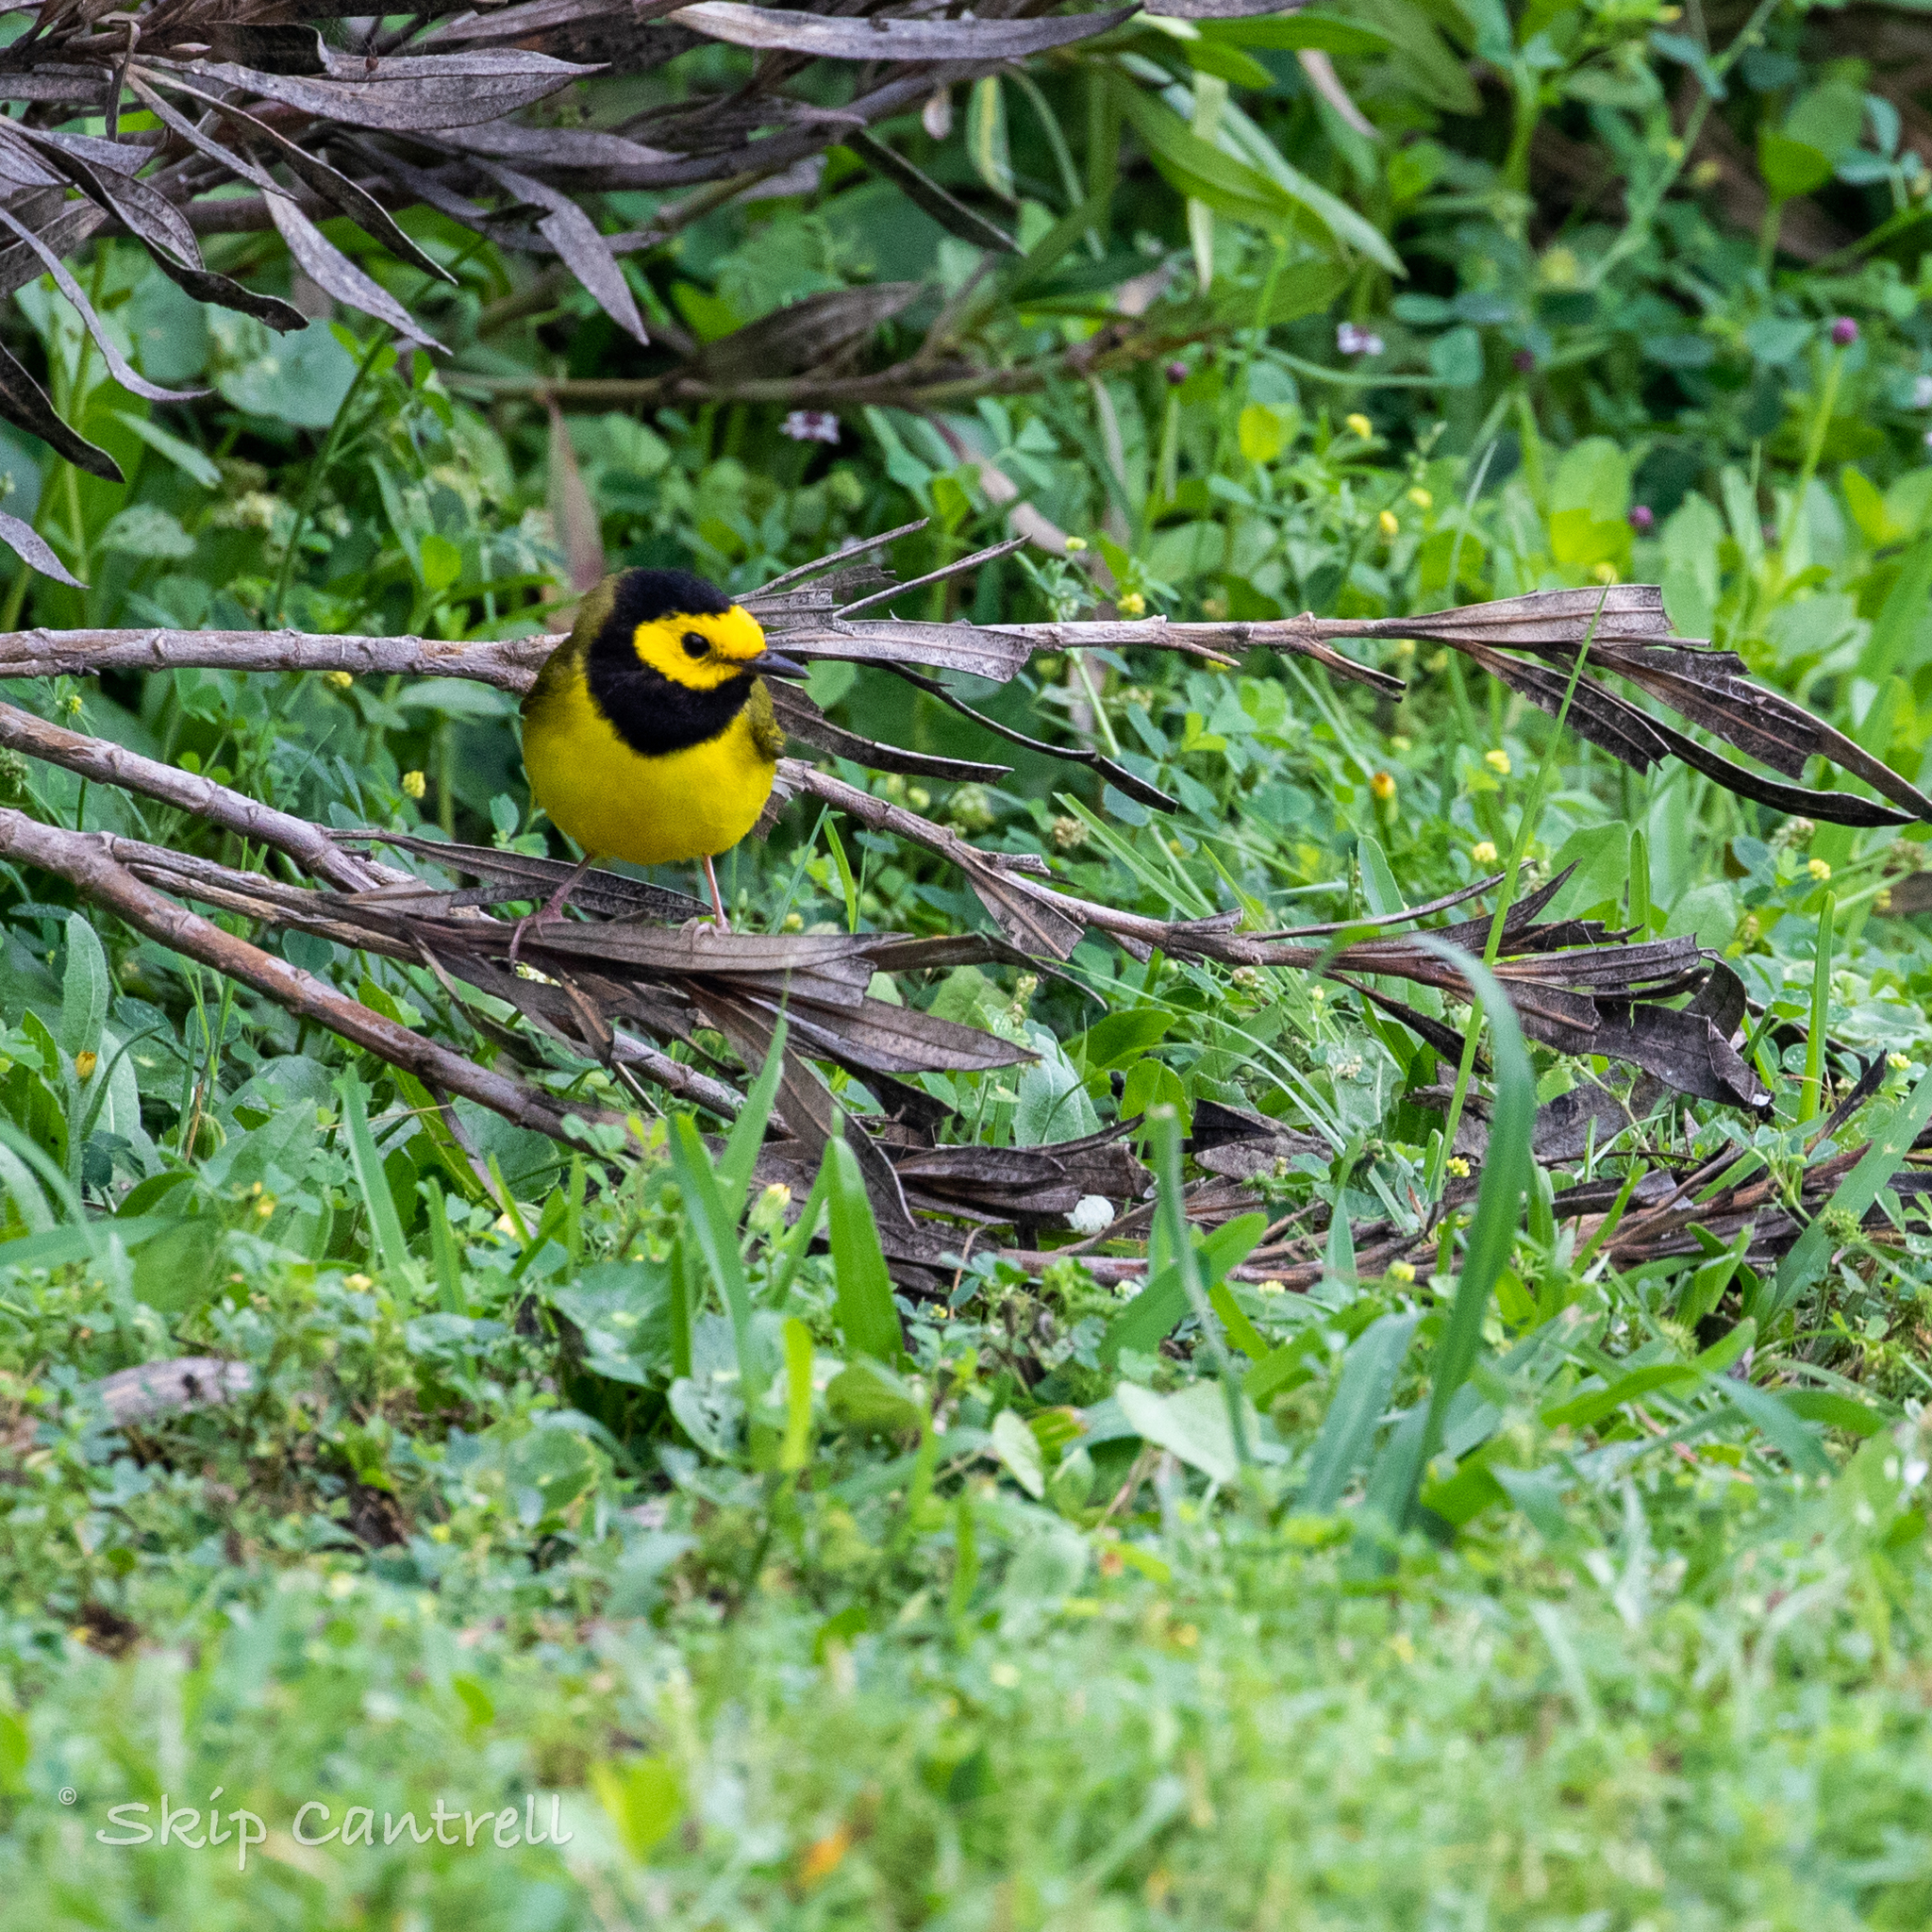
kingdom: Animalia
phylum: Chordata
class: Aves
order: Passeriformes
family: Parulidae
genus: Setophaga
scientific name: Setophaga citrina
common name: Hooded warbler
